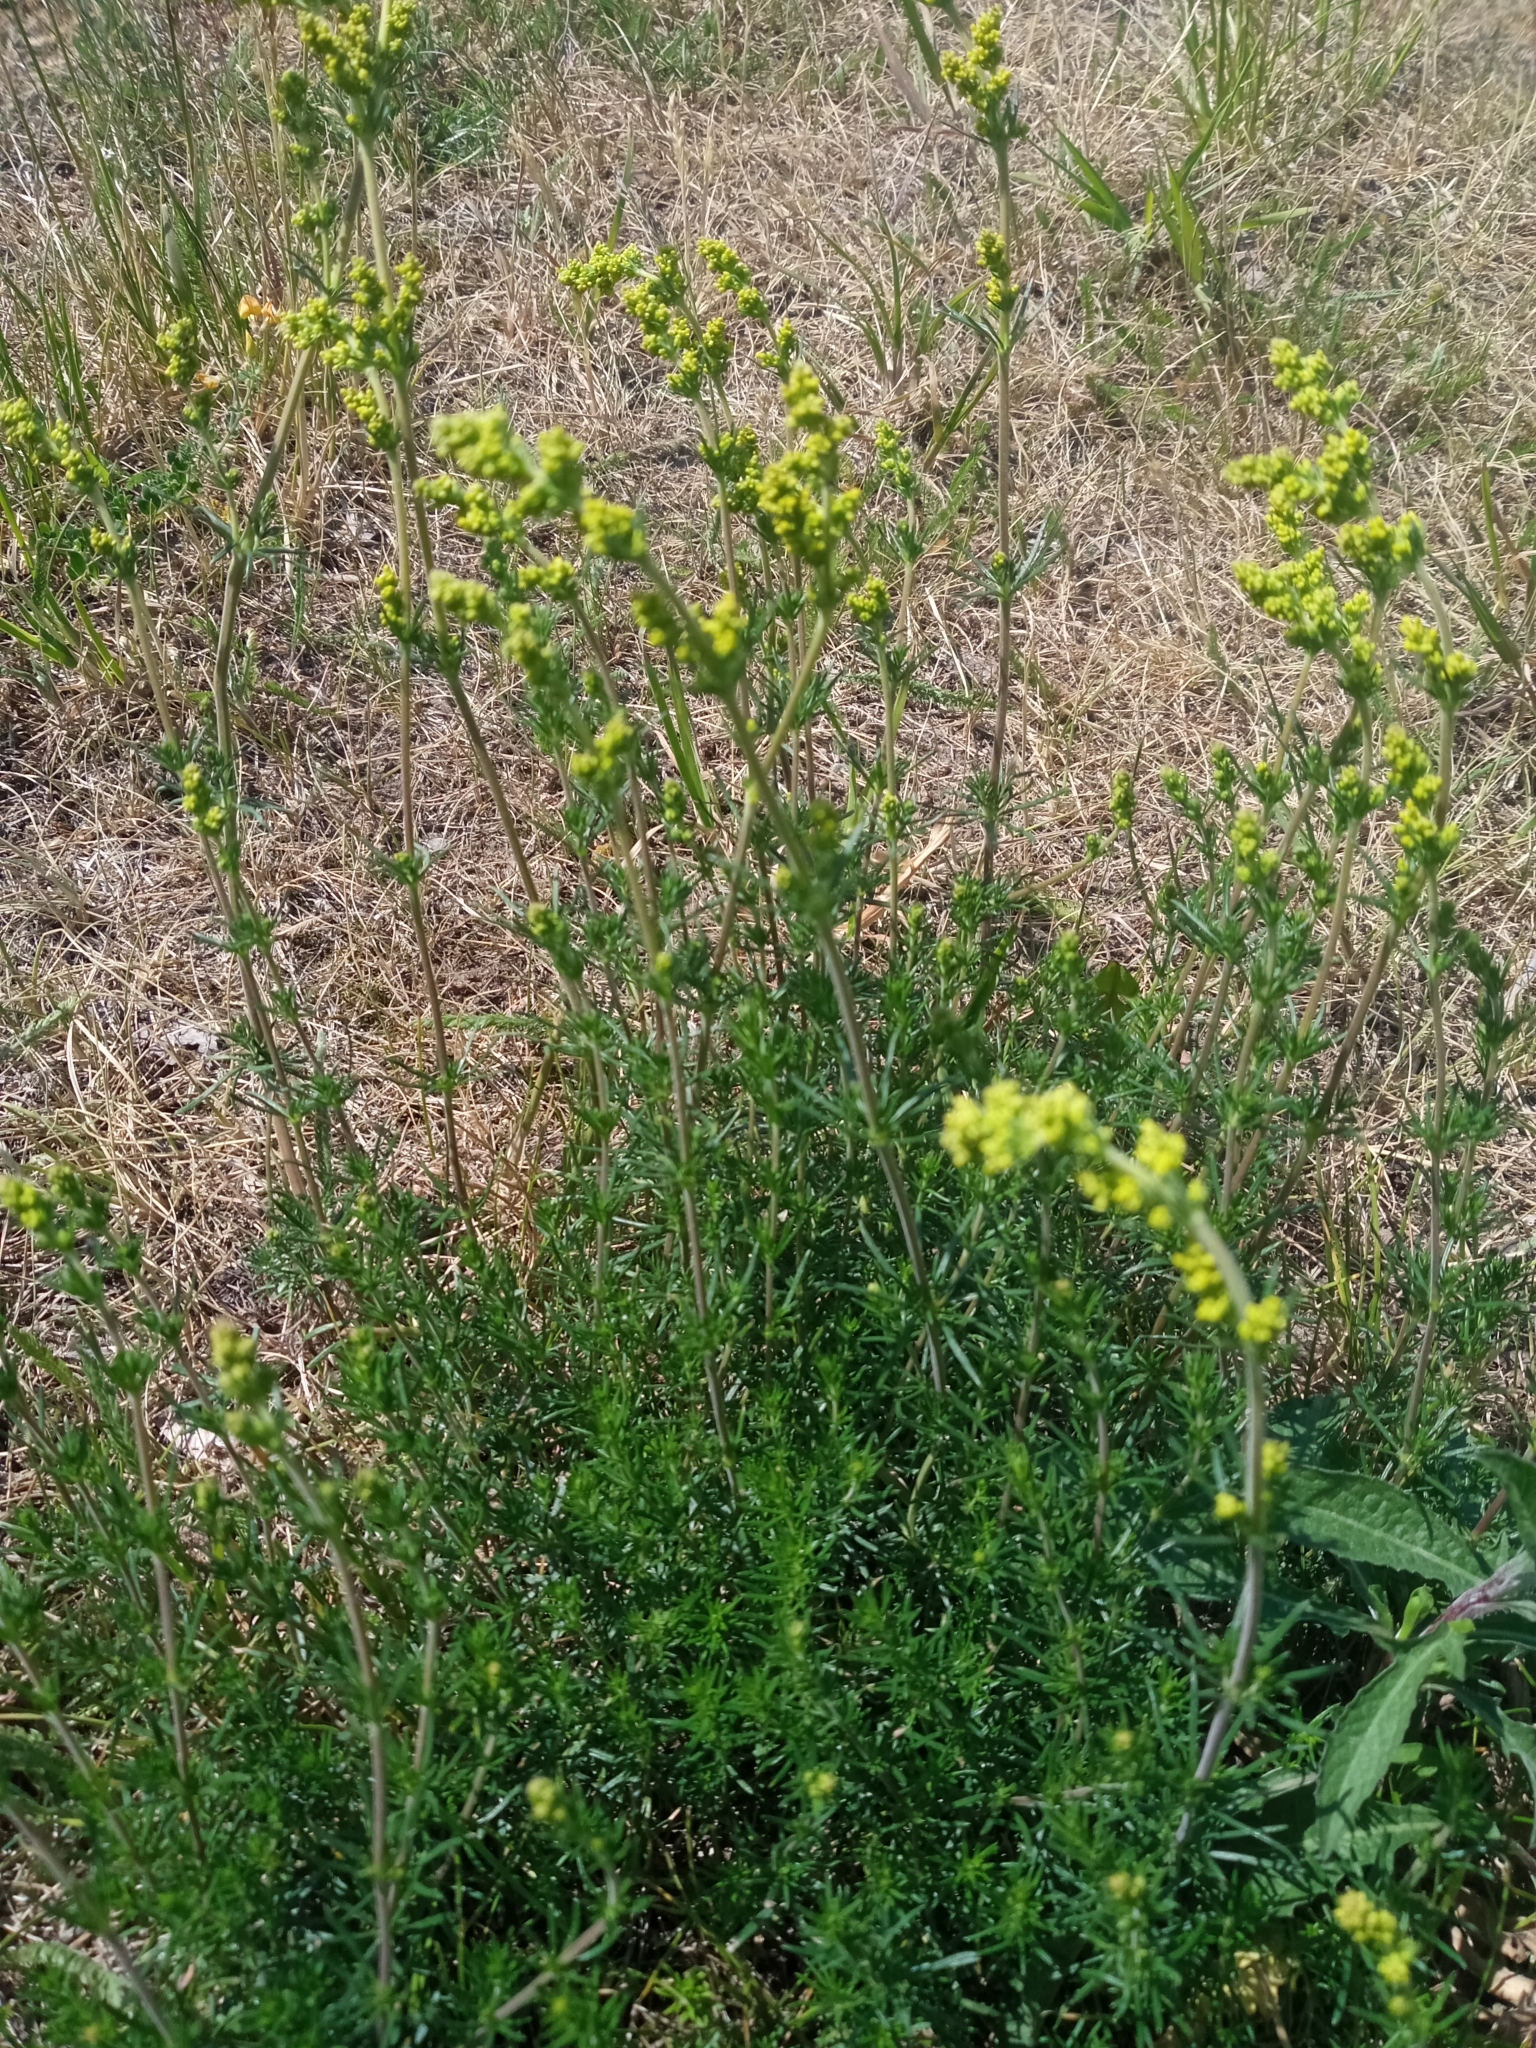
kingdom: Plantae
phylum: Tracheophyta
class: Magnoliopsida
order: Gentianales
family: Rubiaceae
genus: Galium
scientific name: Galium verum
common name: Lady's bedstraw
